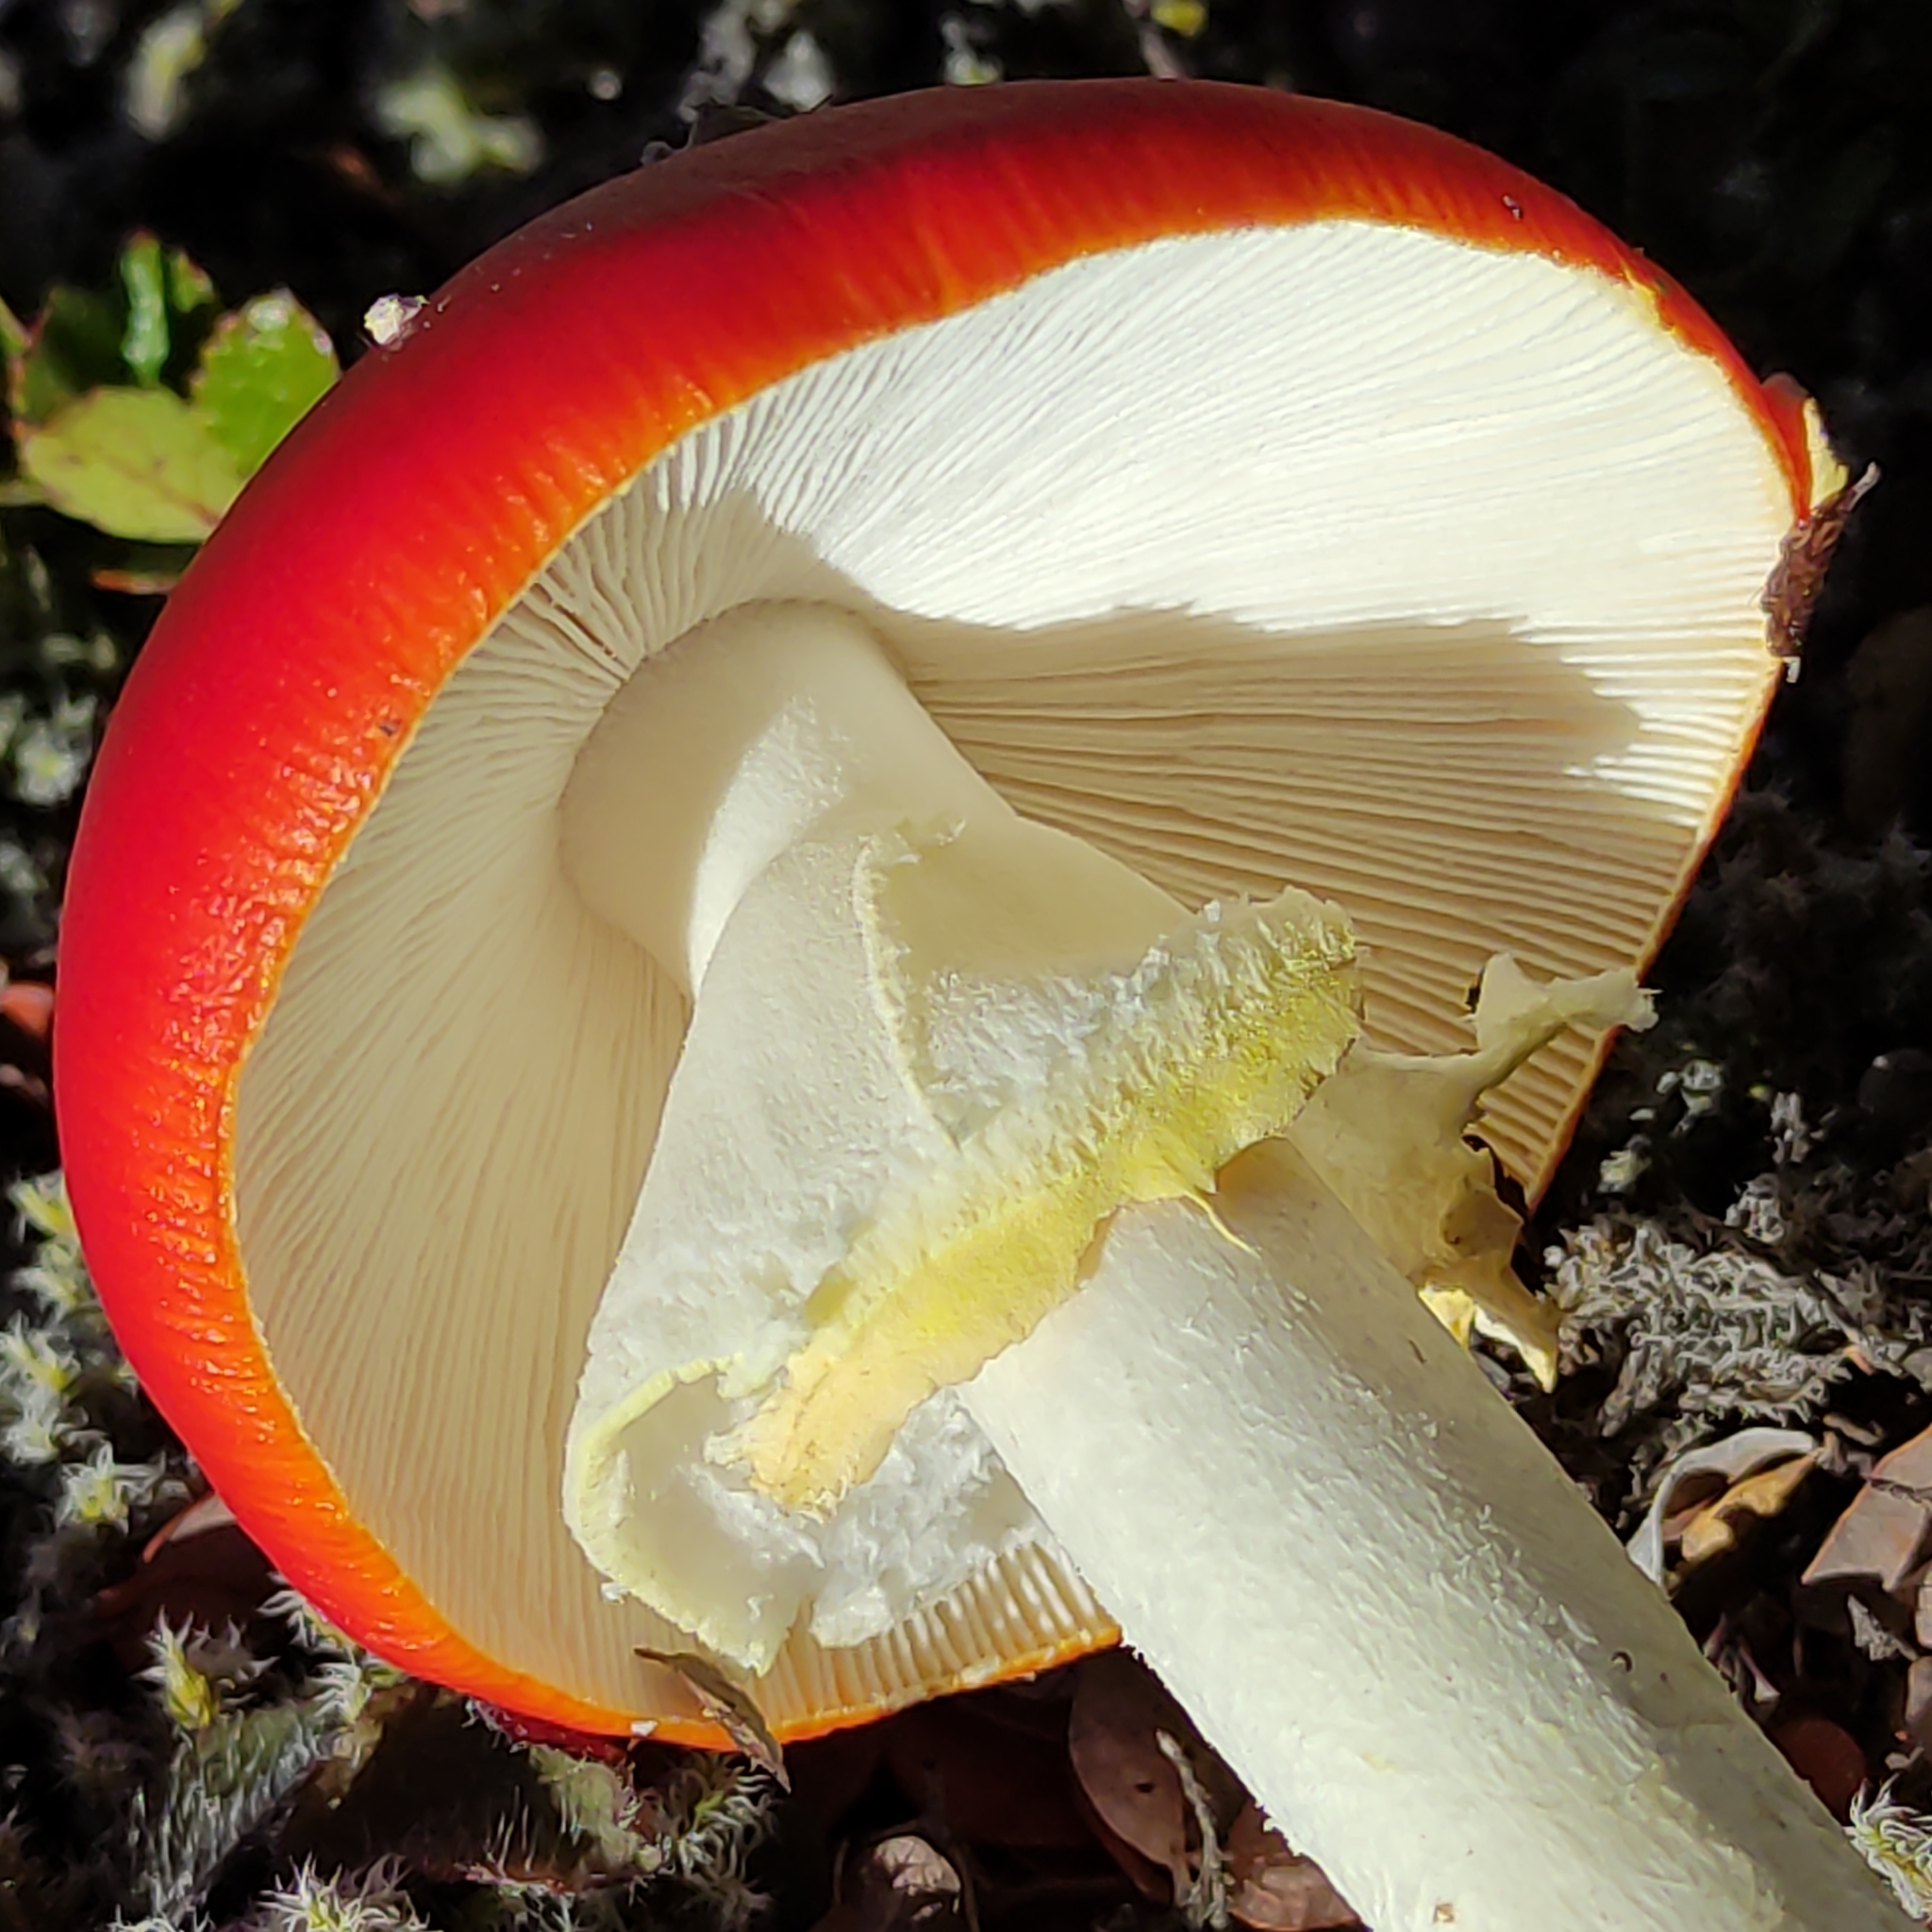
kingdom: Fungi
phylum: Basidiomycota
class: Agaricomycetes
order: Agaricales
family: Amanitaceae
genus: Amanita
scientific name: Amanita muscaria
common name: Fly agaric
